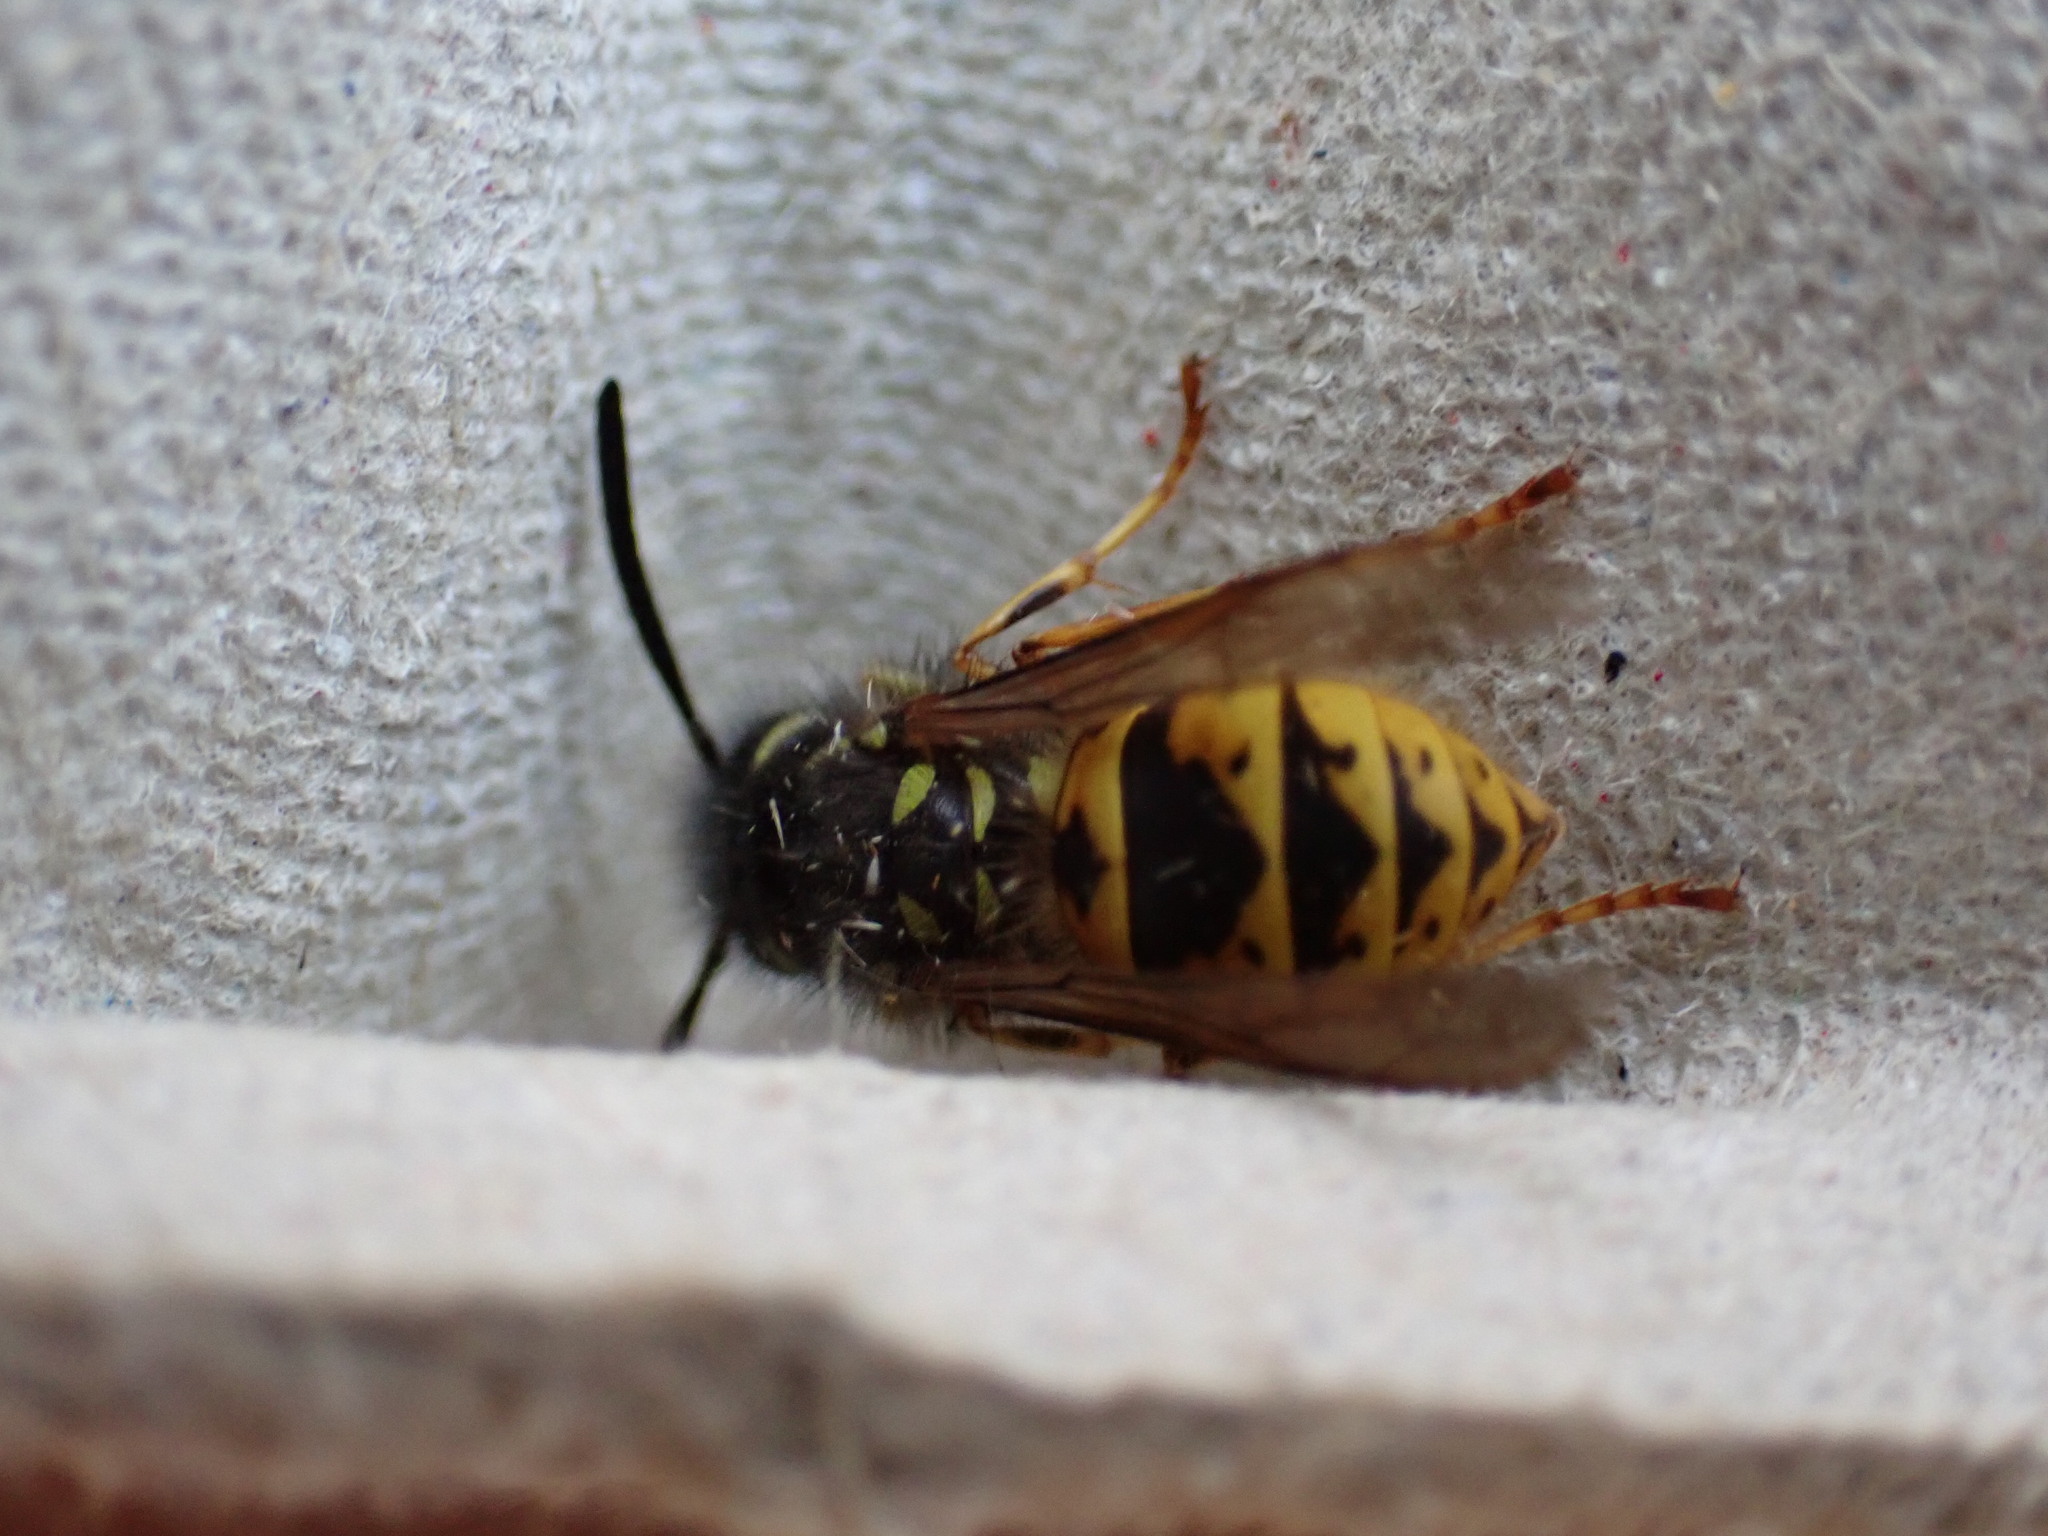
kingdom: Animalia
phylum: Arthropoda
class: Insecta
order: Hymenoptera
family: Vespidae
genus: Vespula
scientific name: Vespula vulgaris
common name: Common wasp
